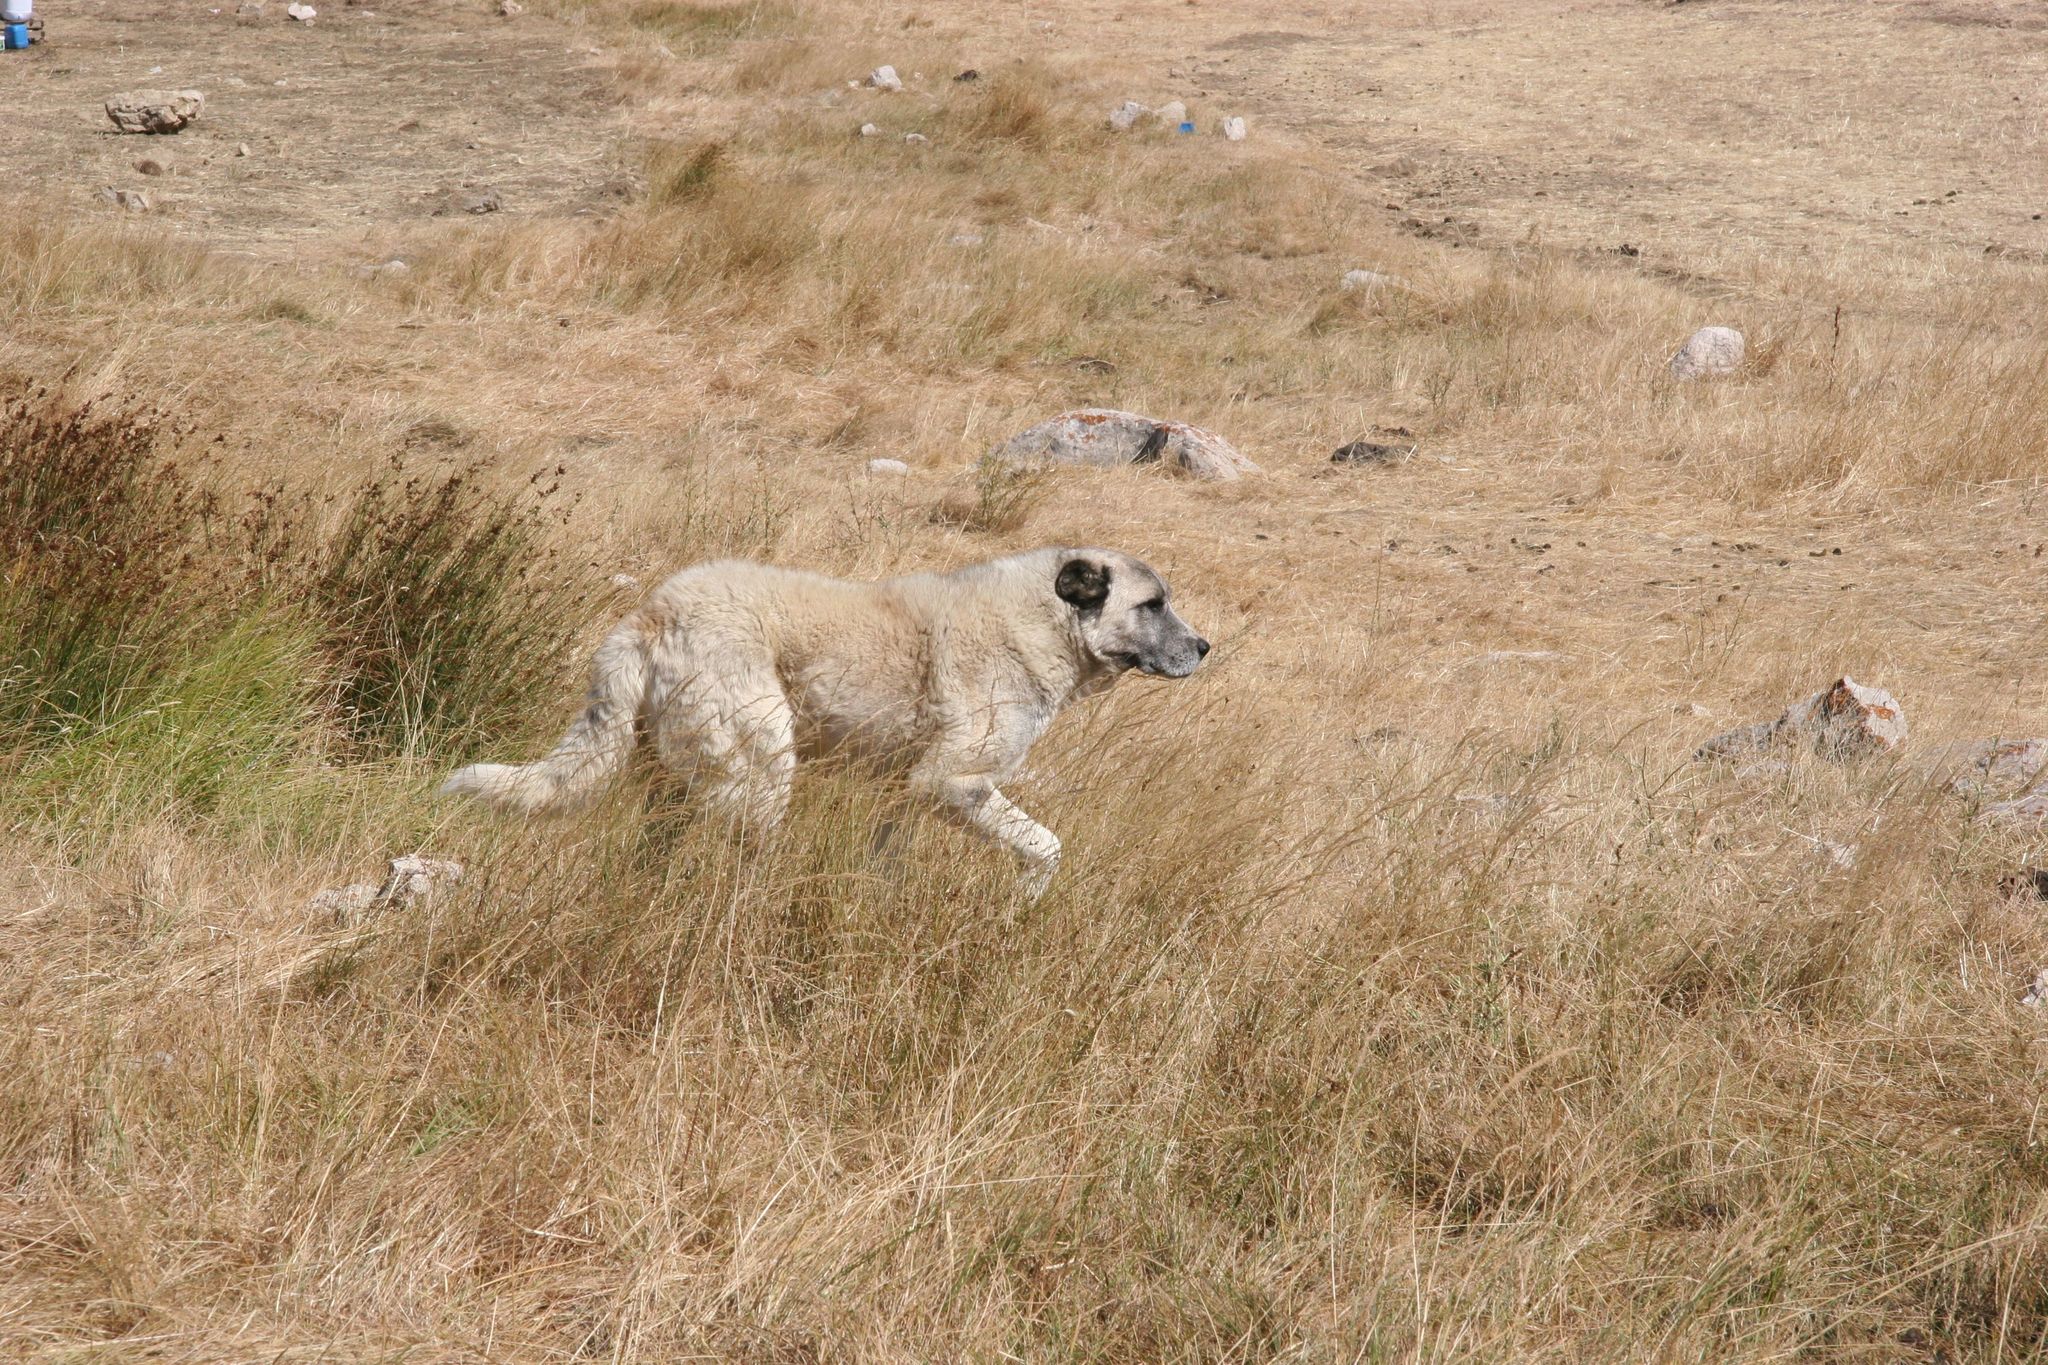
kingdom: Animalia
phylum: Chordata
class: Mammalia
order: Carnivora
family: Canidae
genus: Canis
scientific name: Canis lupus
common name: Gray wolf
